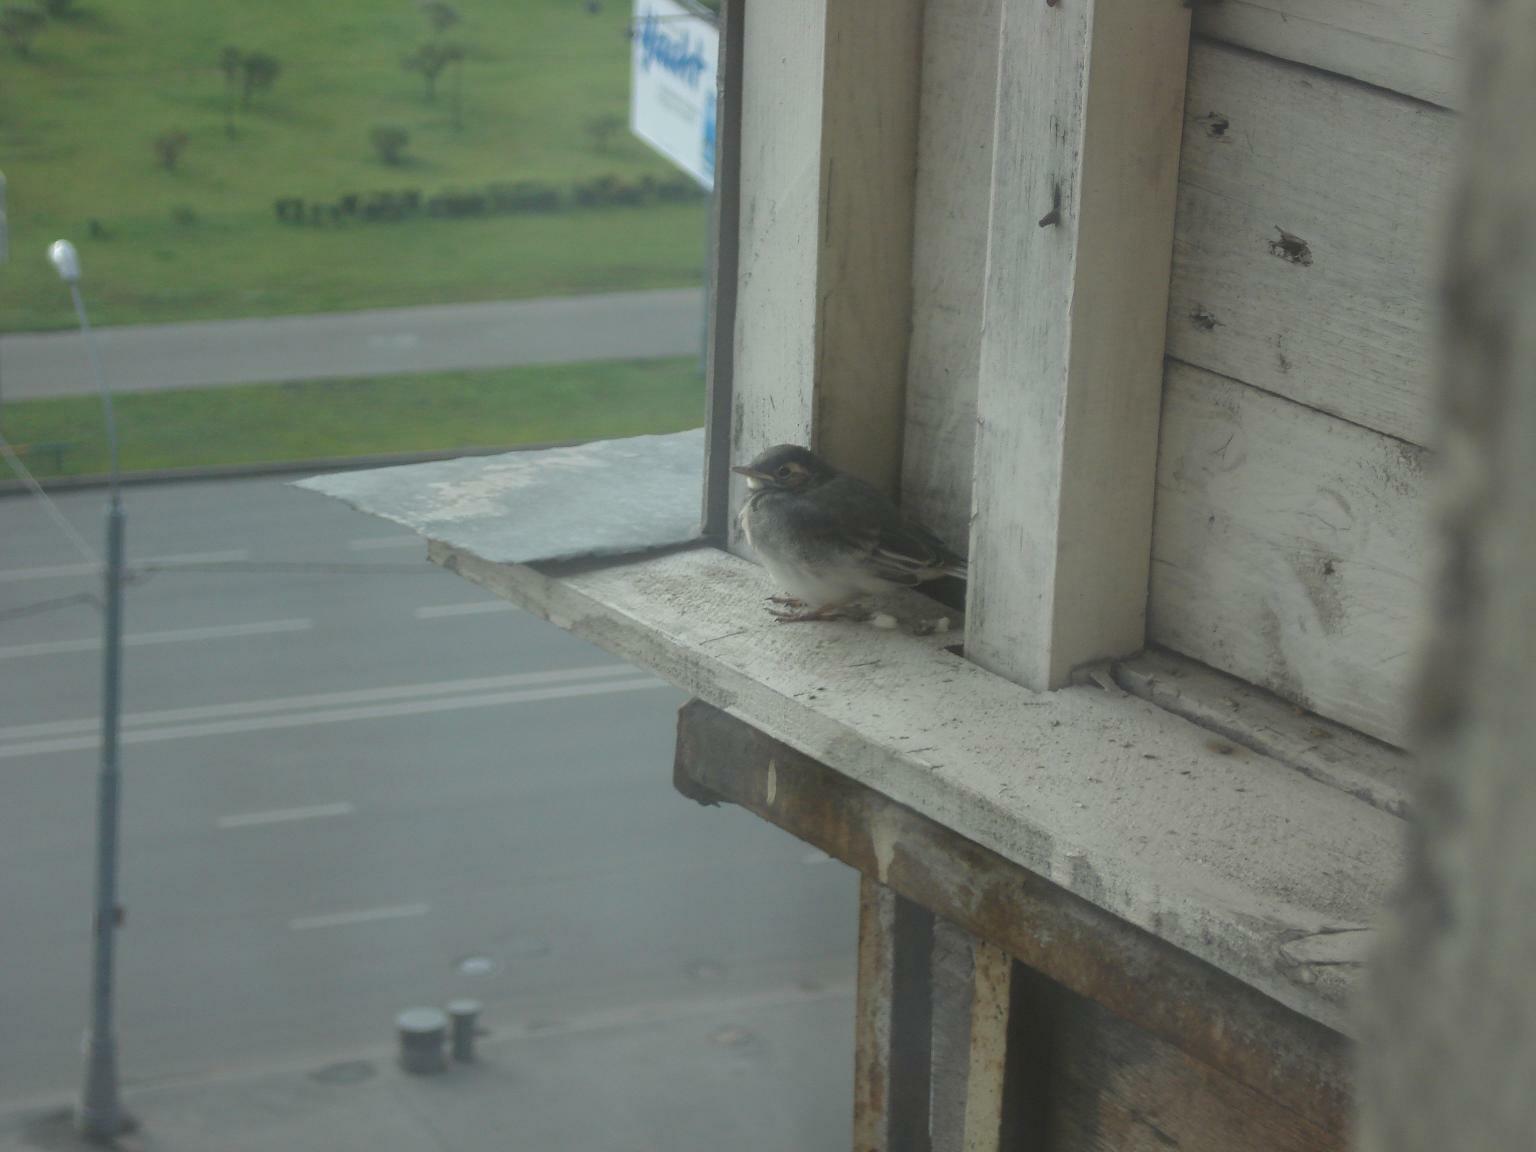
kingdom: Animalia
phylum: Chordata
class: Aves
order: Passeriformes
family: Motacillidae
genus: Motacilla
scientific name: Motacilla alba
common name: White wagtail
